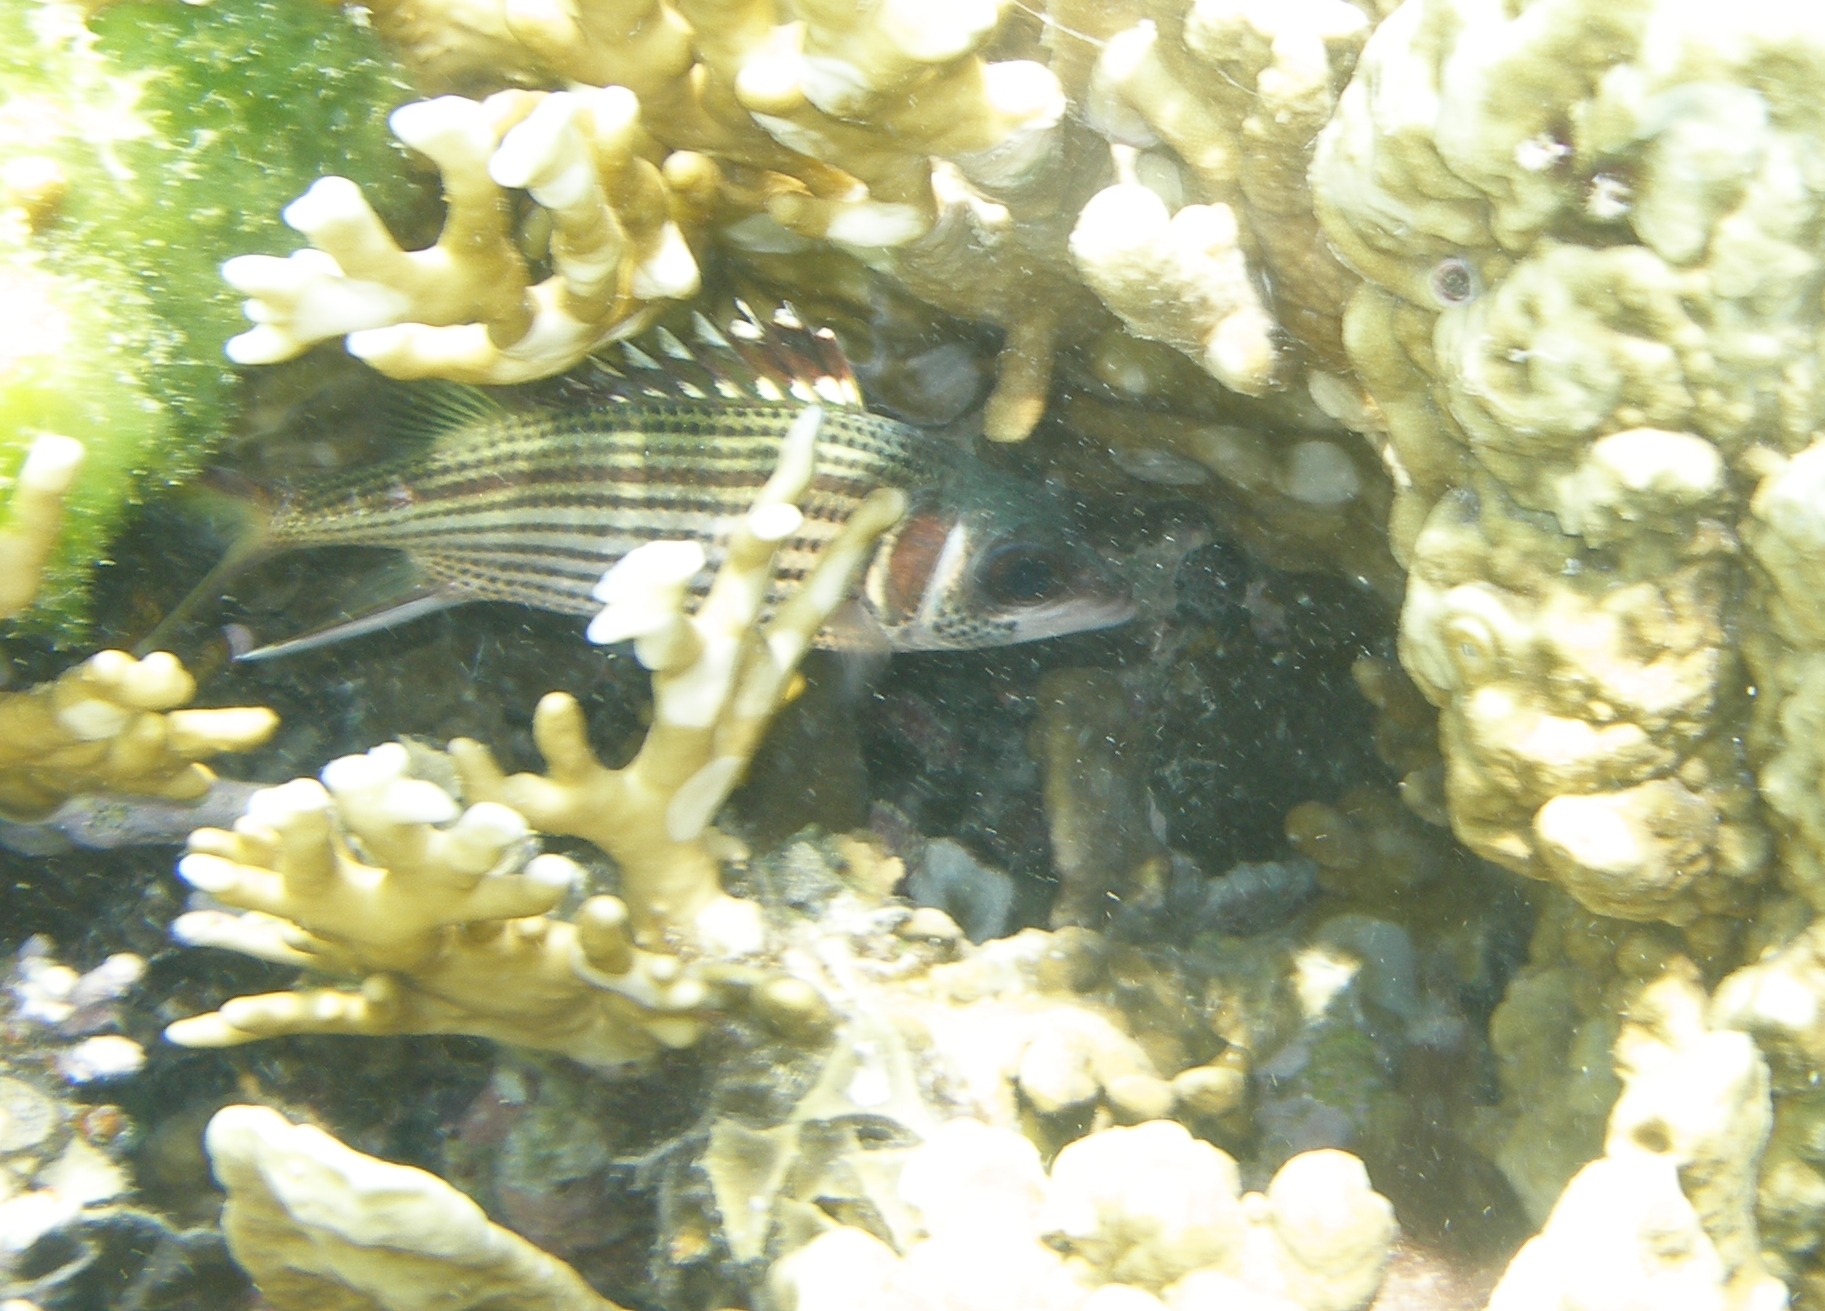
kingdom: Animalia
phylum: Chordata
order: Beryciformes
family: Holocentridae
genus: Neoniphon
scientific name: Neoniphon sammara
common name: Sammara squirrelfish
